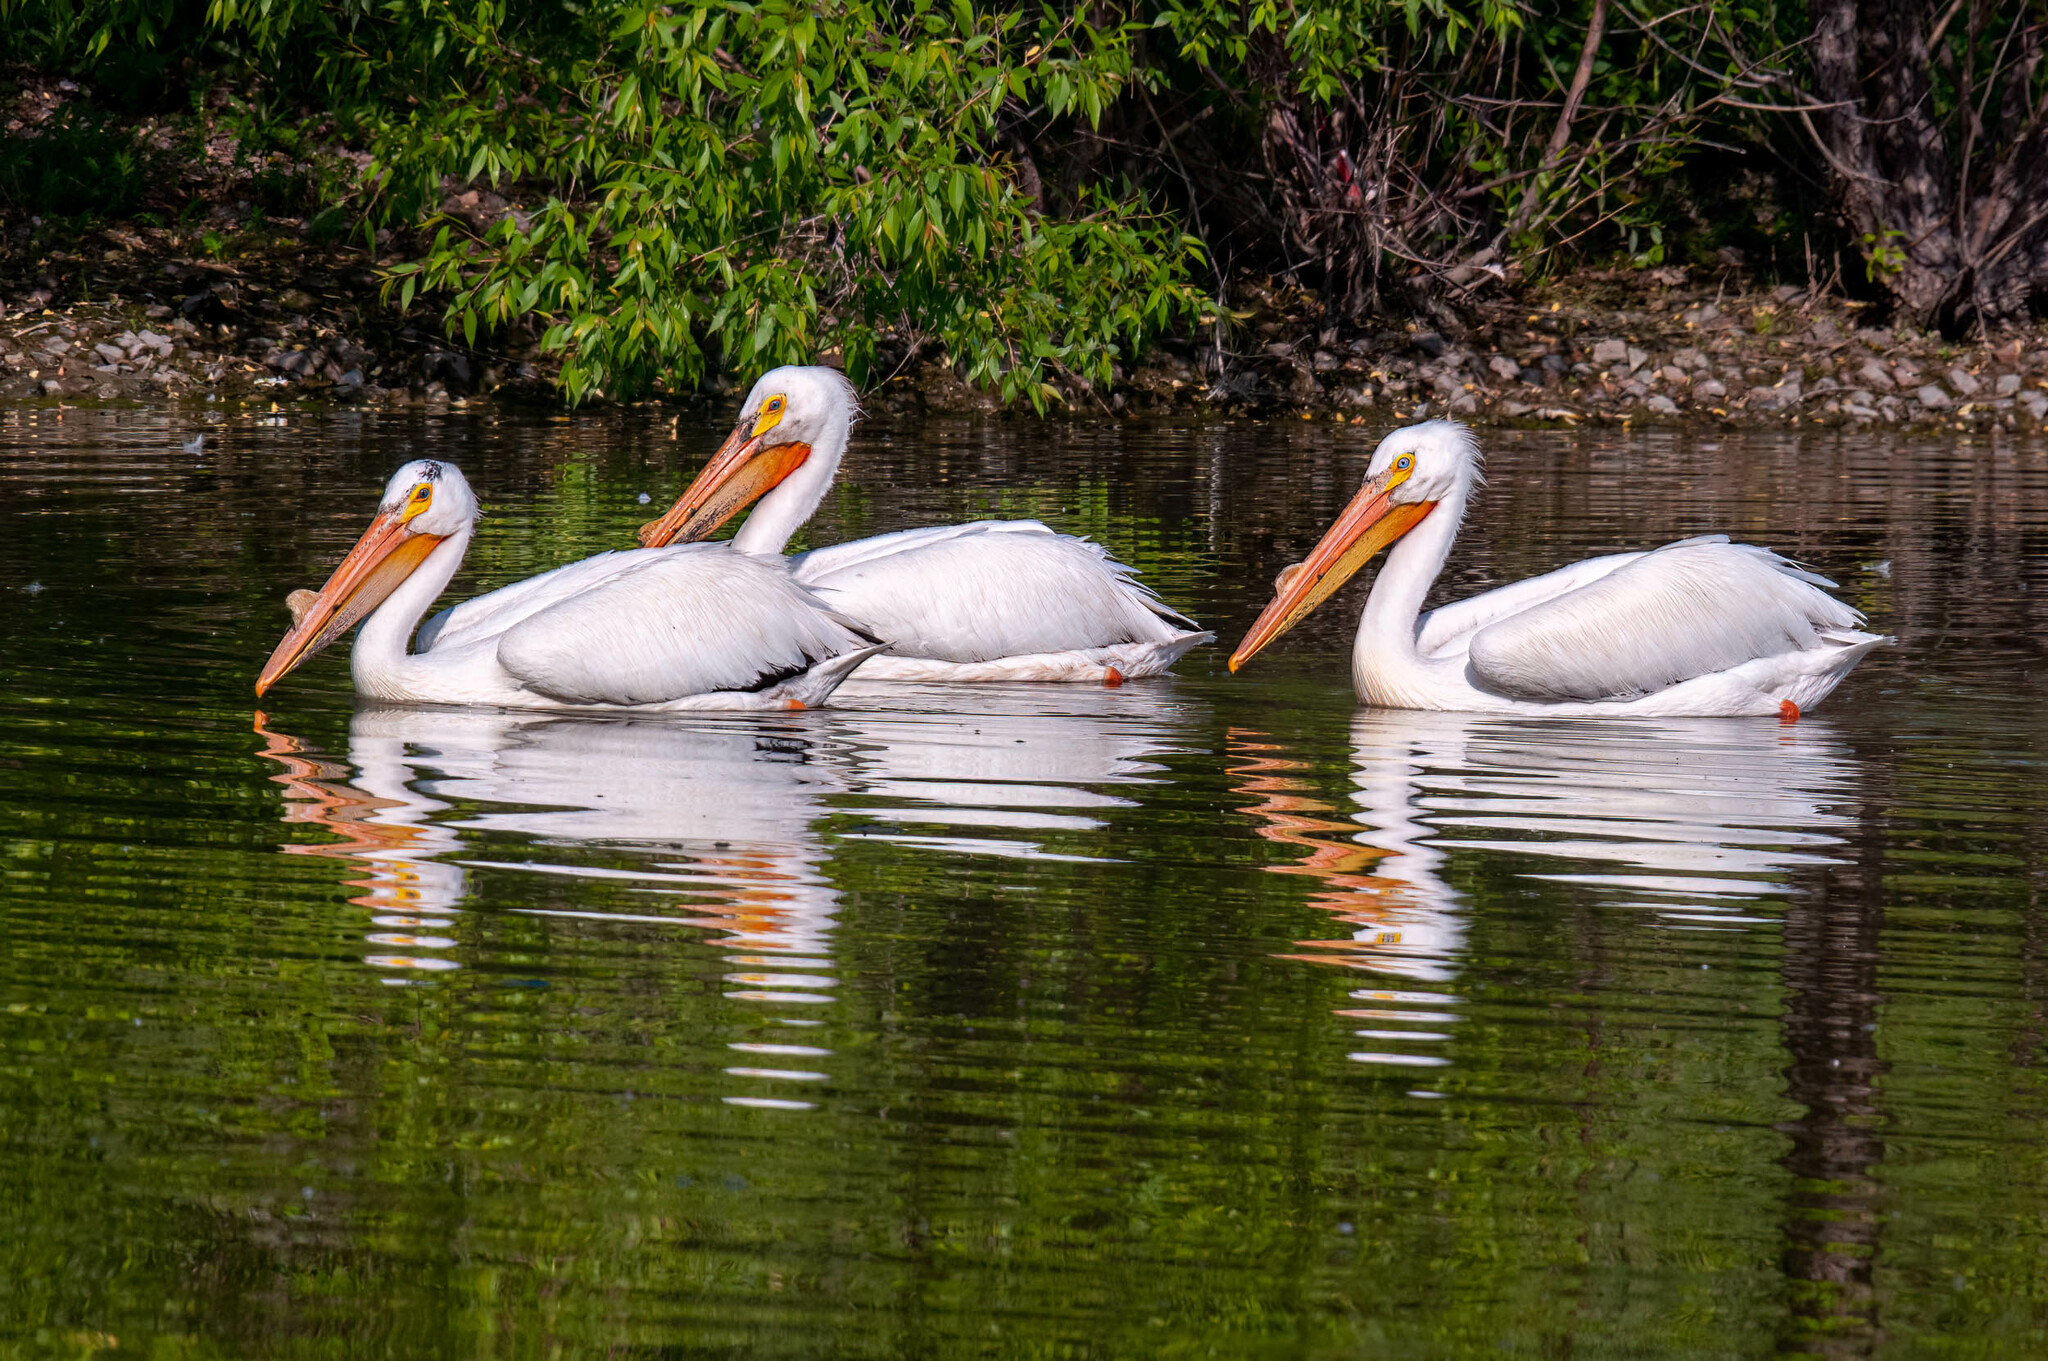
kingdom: Animalia
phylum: Chordata
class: Aves
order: Pelecaniformes
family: Pelecanidae
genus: Pelecanus
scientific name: Pelecanus erythrorhynchos
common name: American white pelican
